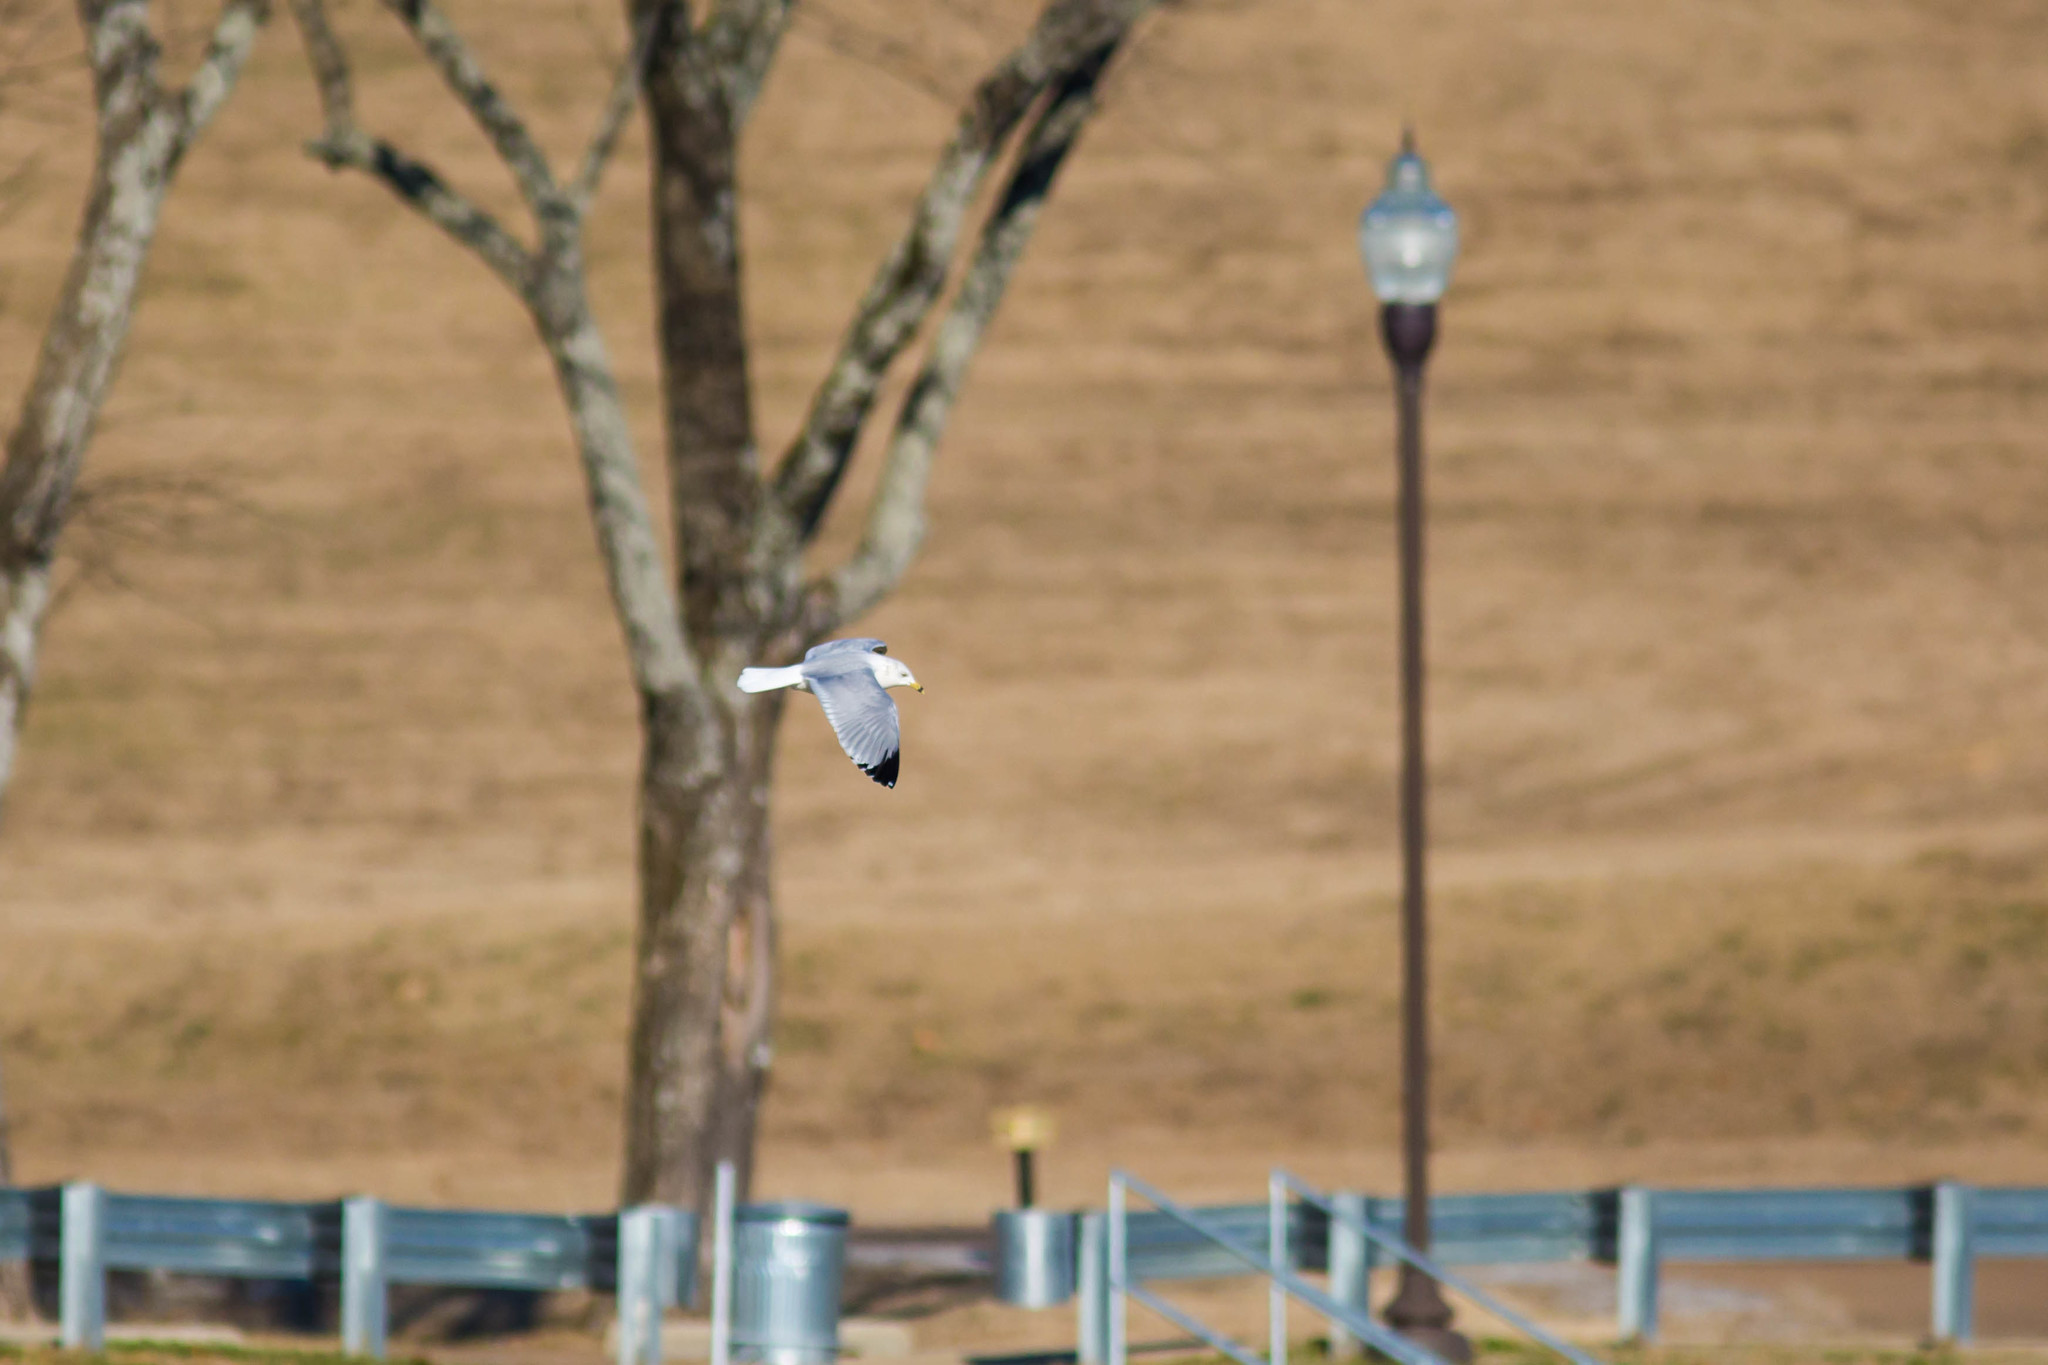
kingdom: Animalia
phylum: Chordata
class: Aves
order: Charadriiformes
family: Laridae
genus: Larus
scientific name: Larus delawarensis
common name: Ring-billed gull
